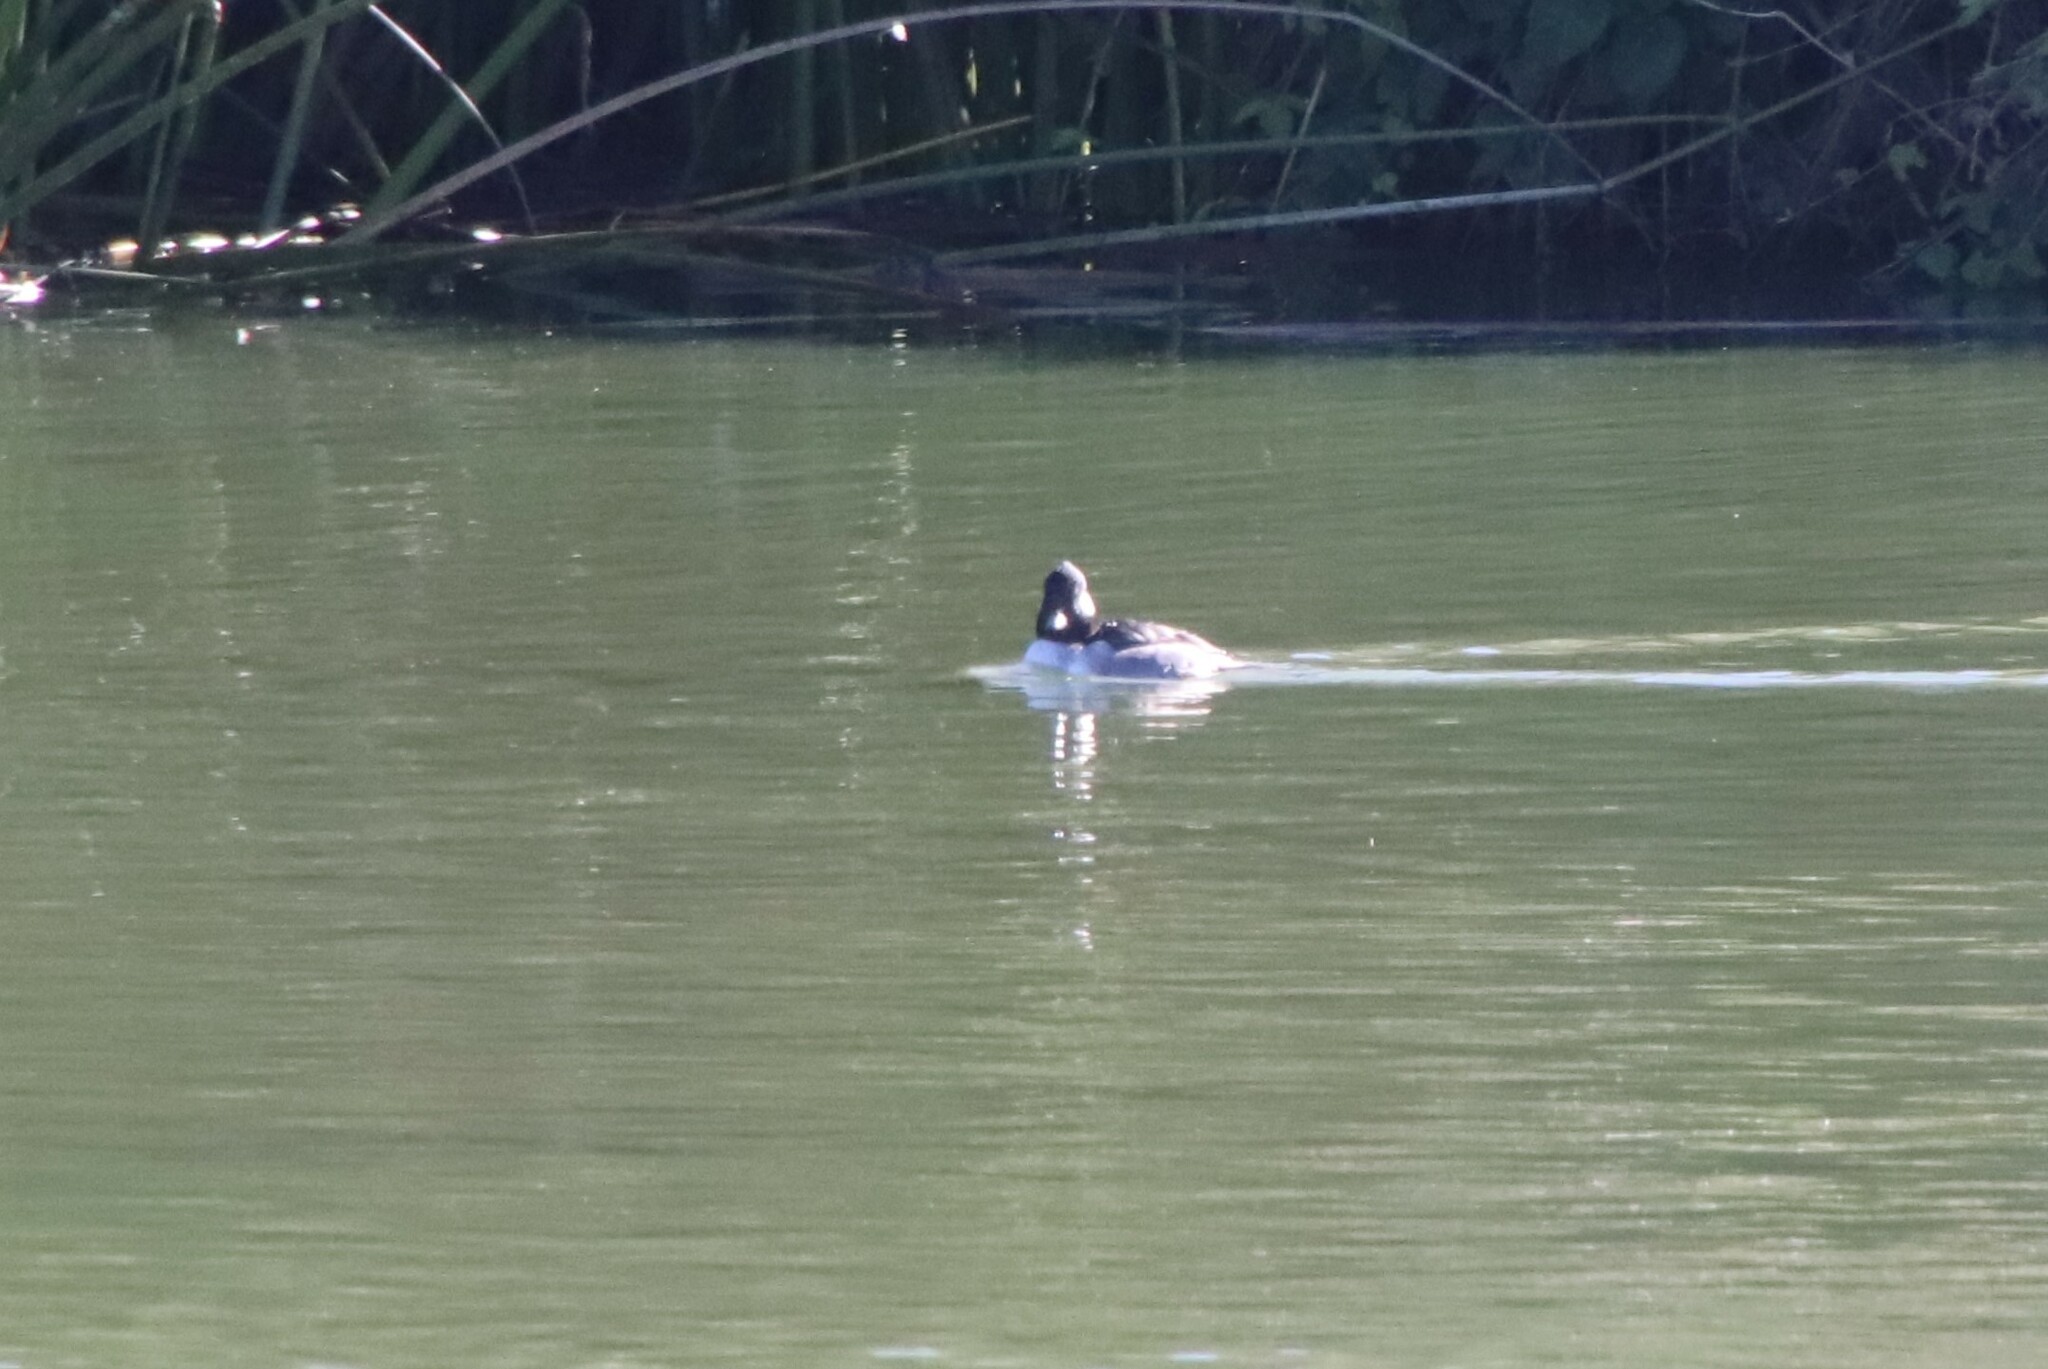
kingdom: Animalia
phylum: Chordata
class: Aves
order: Anseriformes
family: Anatidae
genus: Bucephala
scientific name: Bucephala albeola
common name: Bufflehead
